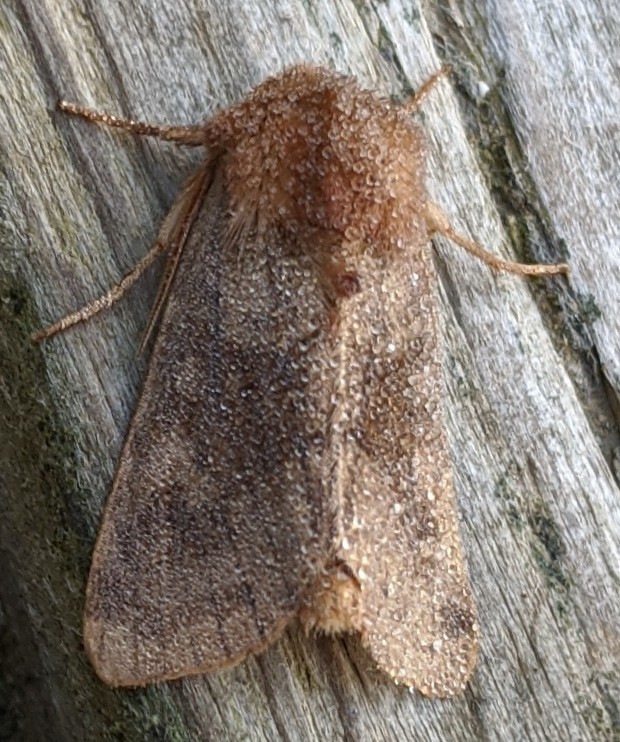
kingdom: Animalia
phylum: Arthropoda
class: Insecta
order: Lepidoptera
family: Noctuidae
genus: Nephelodes
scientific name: Nephelodes minians
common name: Bronzed cutworm
